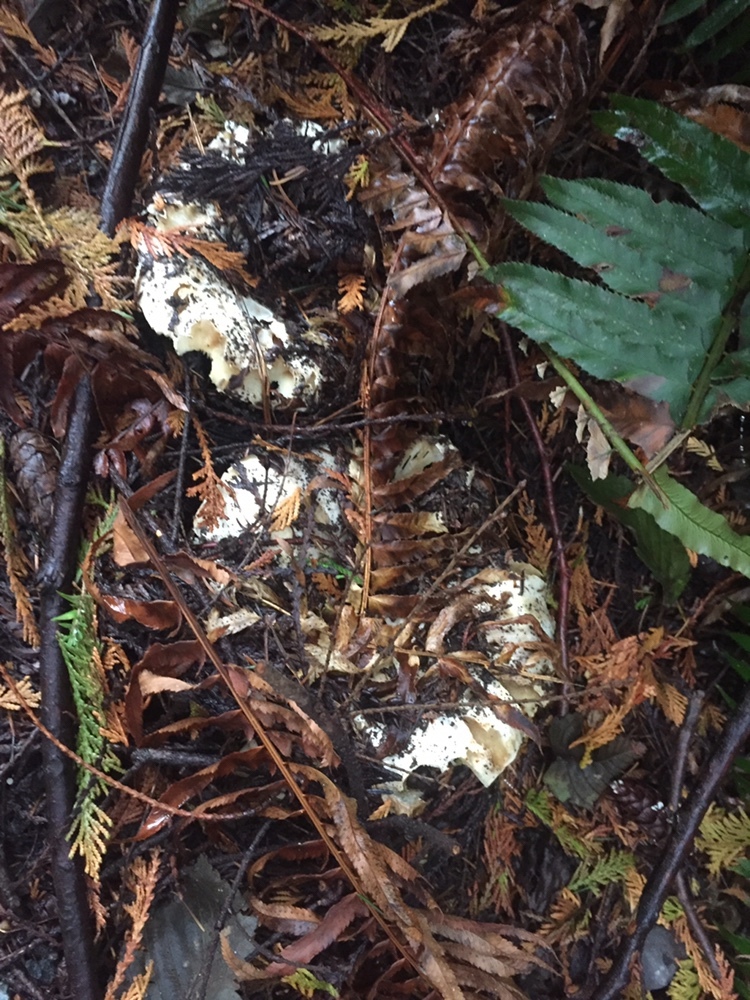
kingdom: Fungi
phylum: Basidiomycota
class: Agaricomycetes
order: Russulales
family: Russulaceae
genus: Russula
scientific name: Russula brevipes
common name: Short-stemmed russula
